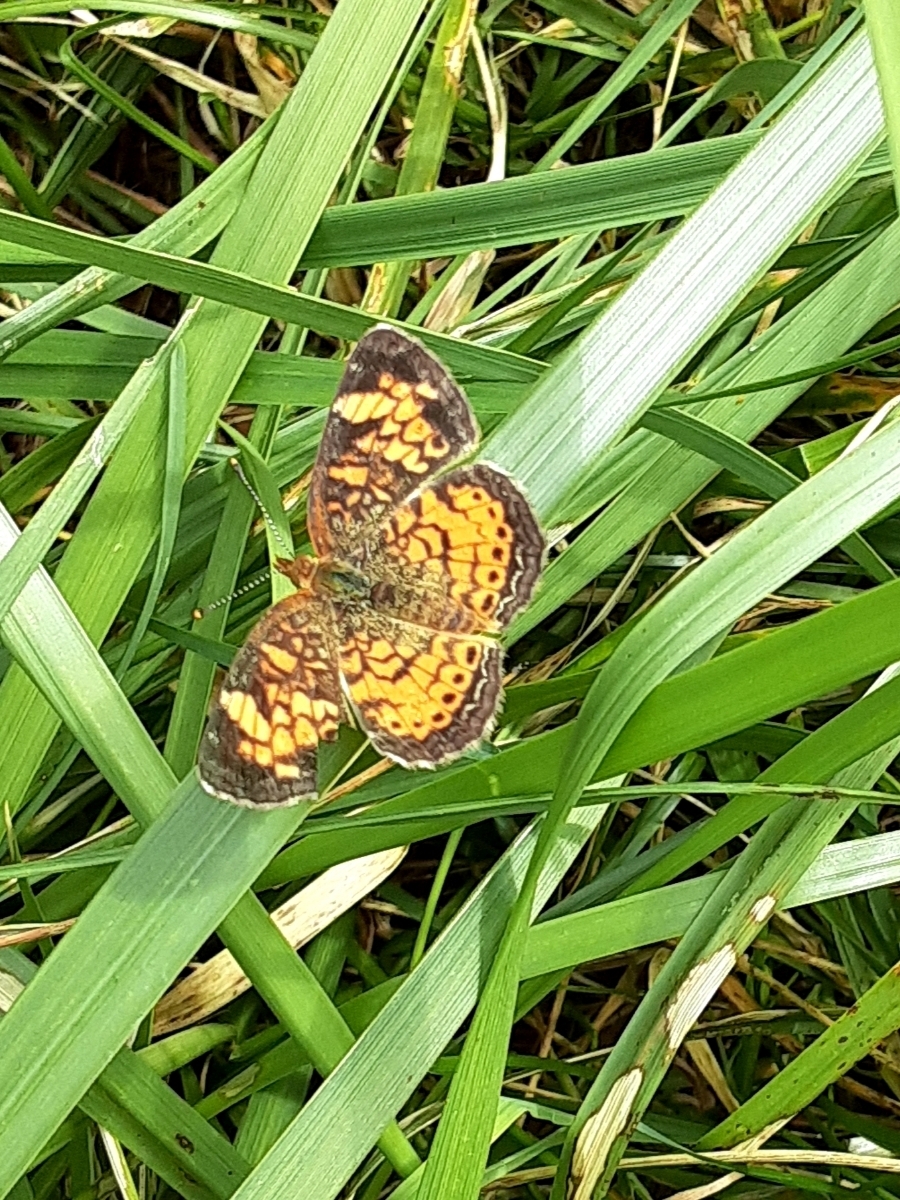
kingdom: Animalia
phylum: Arthropoda
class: Insecta
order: Lepidoptera
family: Nymphalidae
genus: Phyciodes
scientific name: Phyciodes tharos
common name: Pearl crescent
